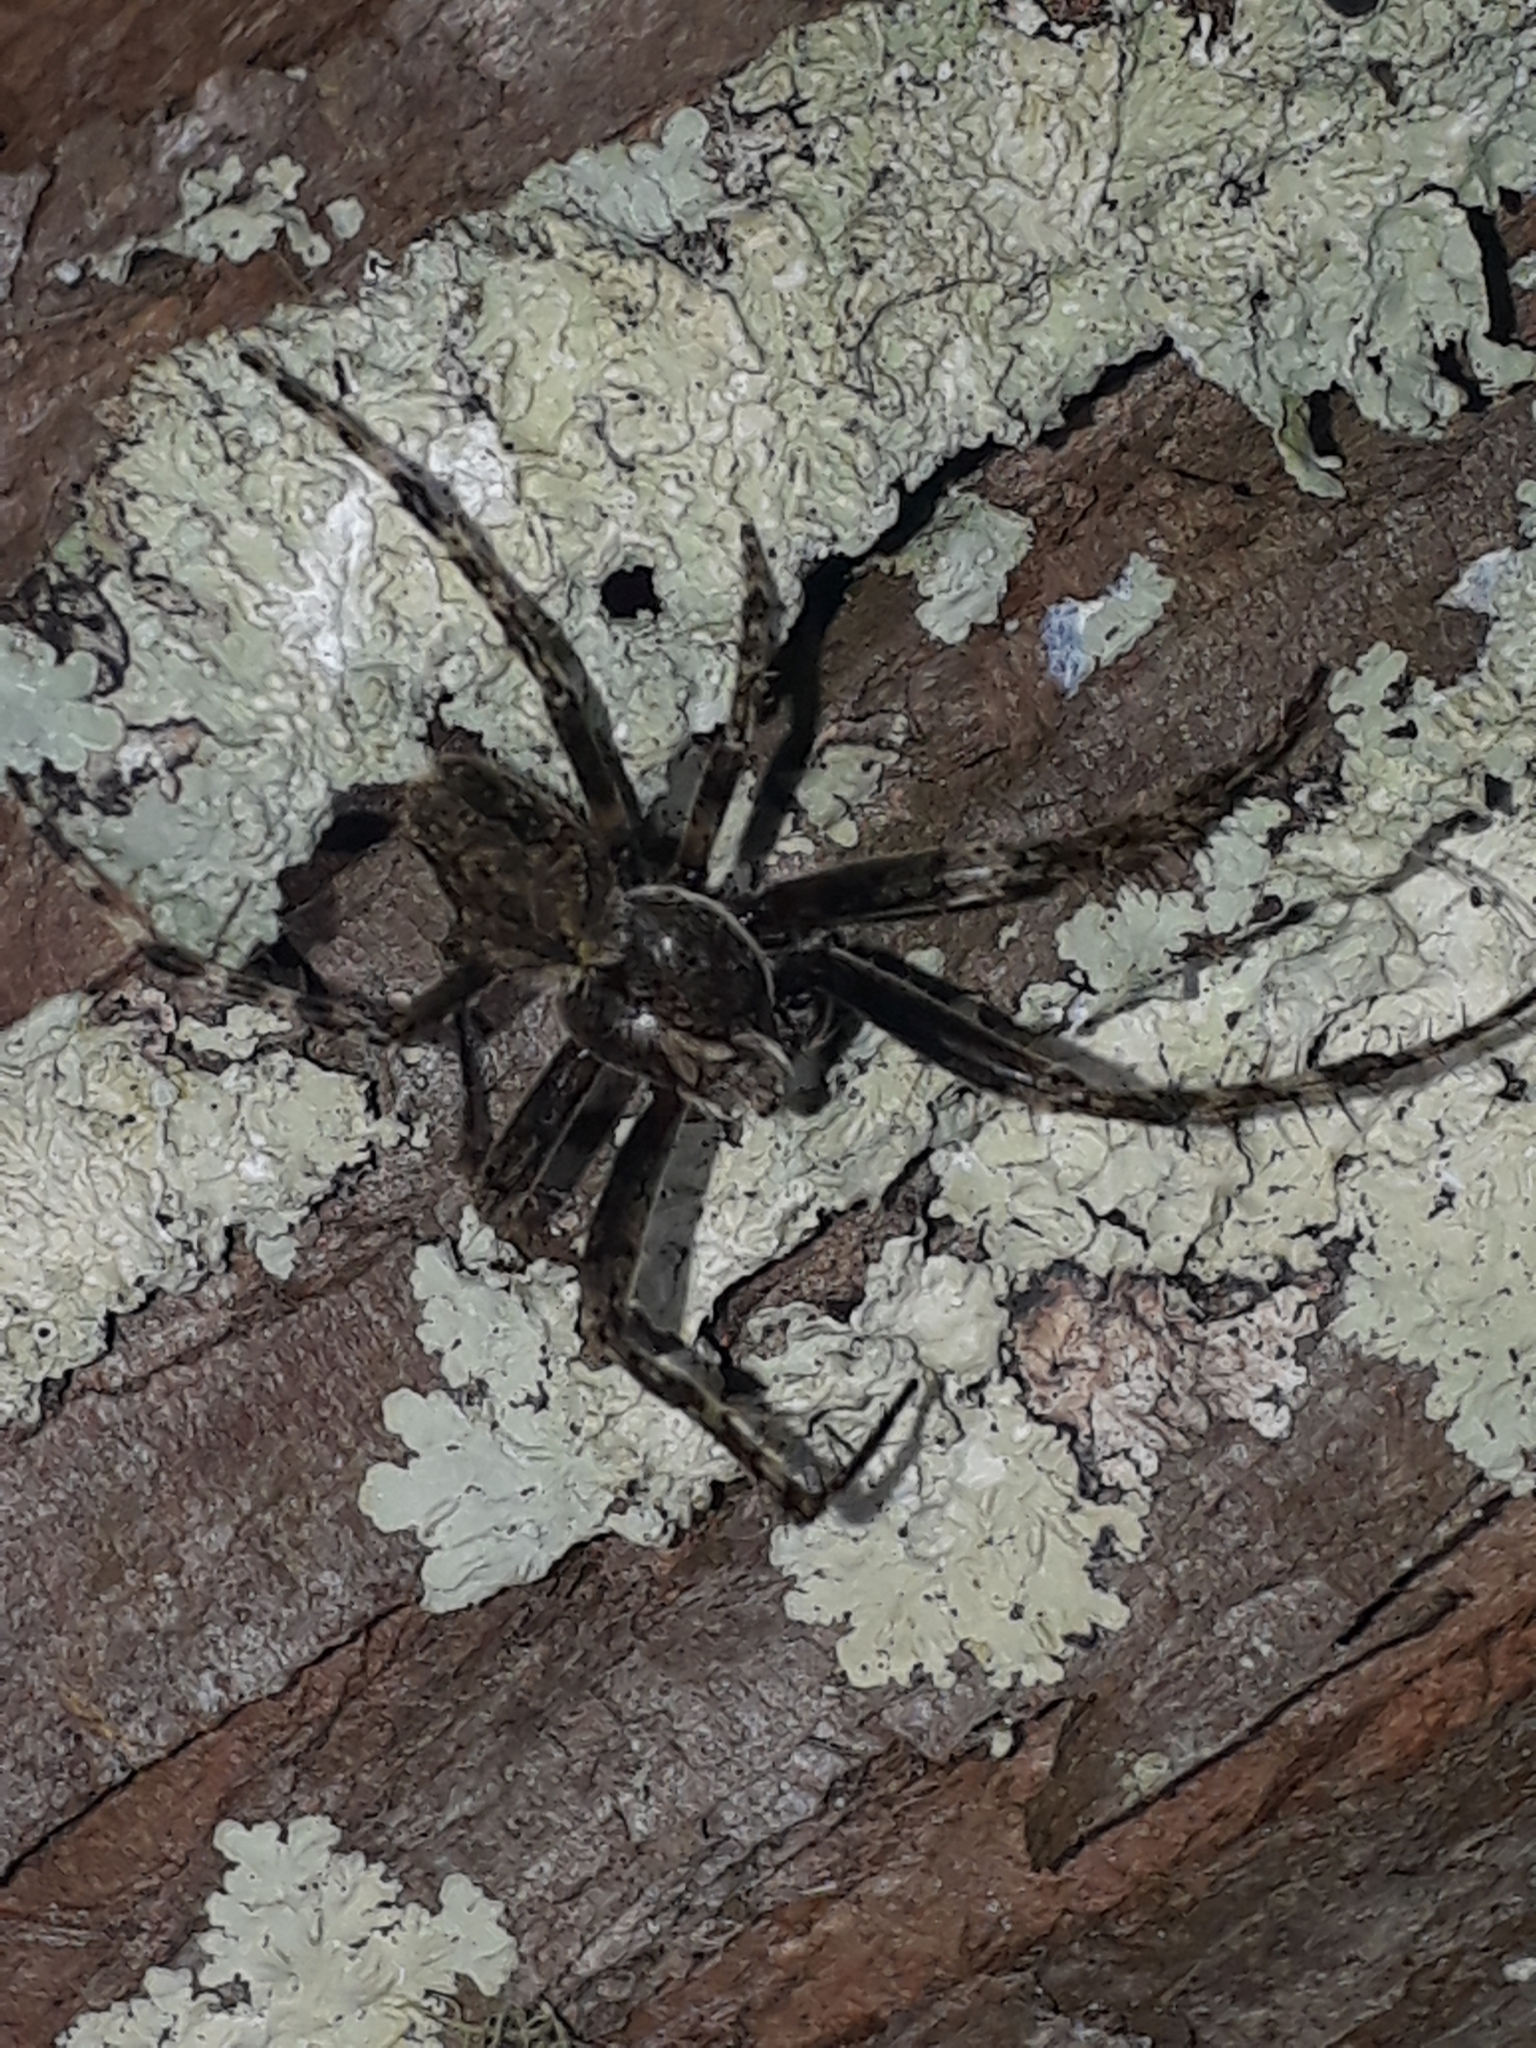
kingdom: Animalia
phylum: Arthropoda
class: Arachnida
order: Araneae
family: Araneidae
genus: Eriophora
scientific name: Eriophora pustulosa
